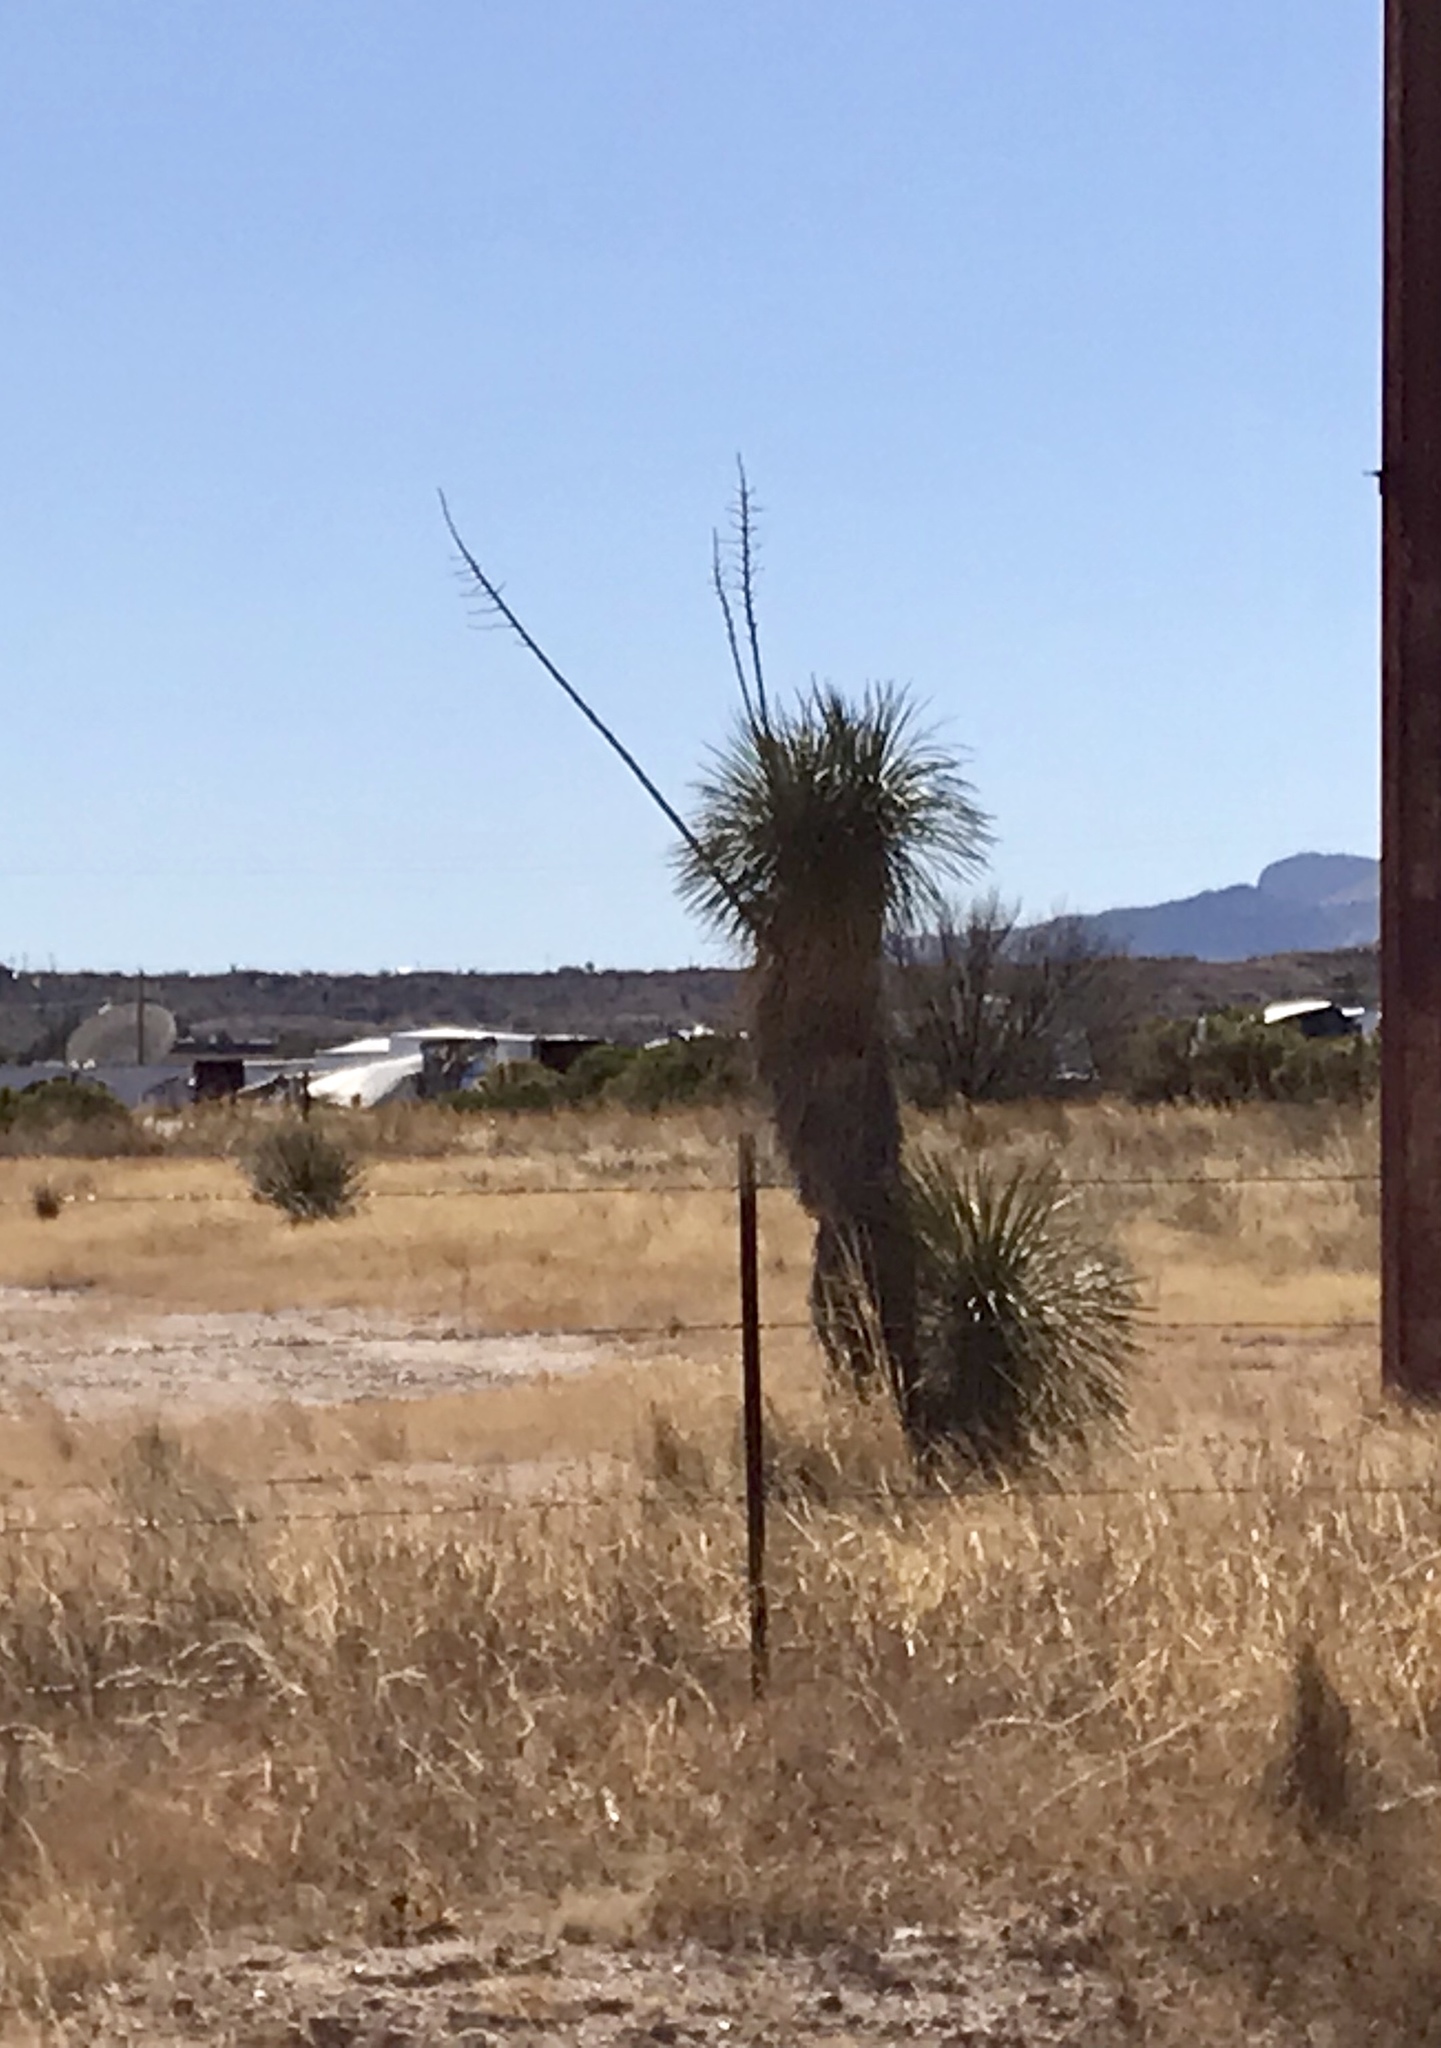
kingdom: Plantae
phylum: Tracheophyta
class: Liliopsida
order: Asparagales
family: Asparagaceae
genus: Yucca
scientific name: Yucca elata
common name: Palmella
